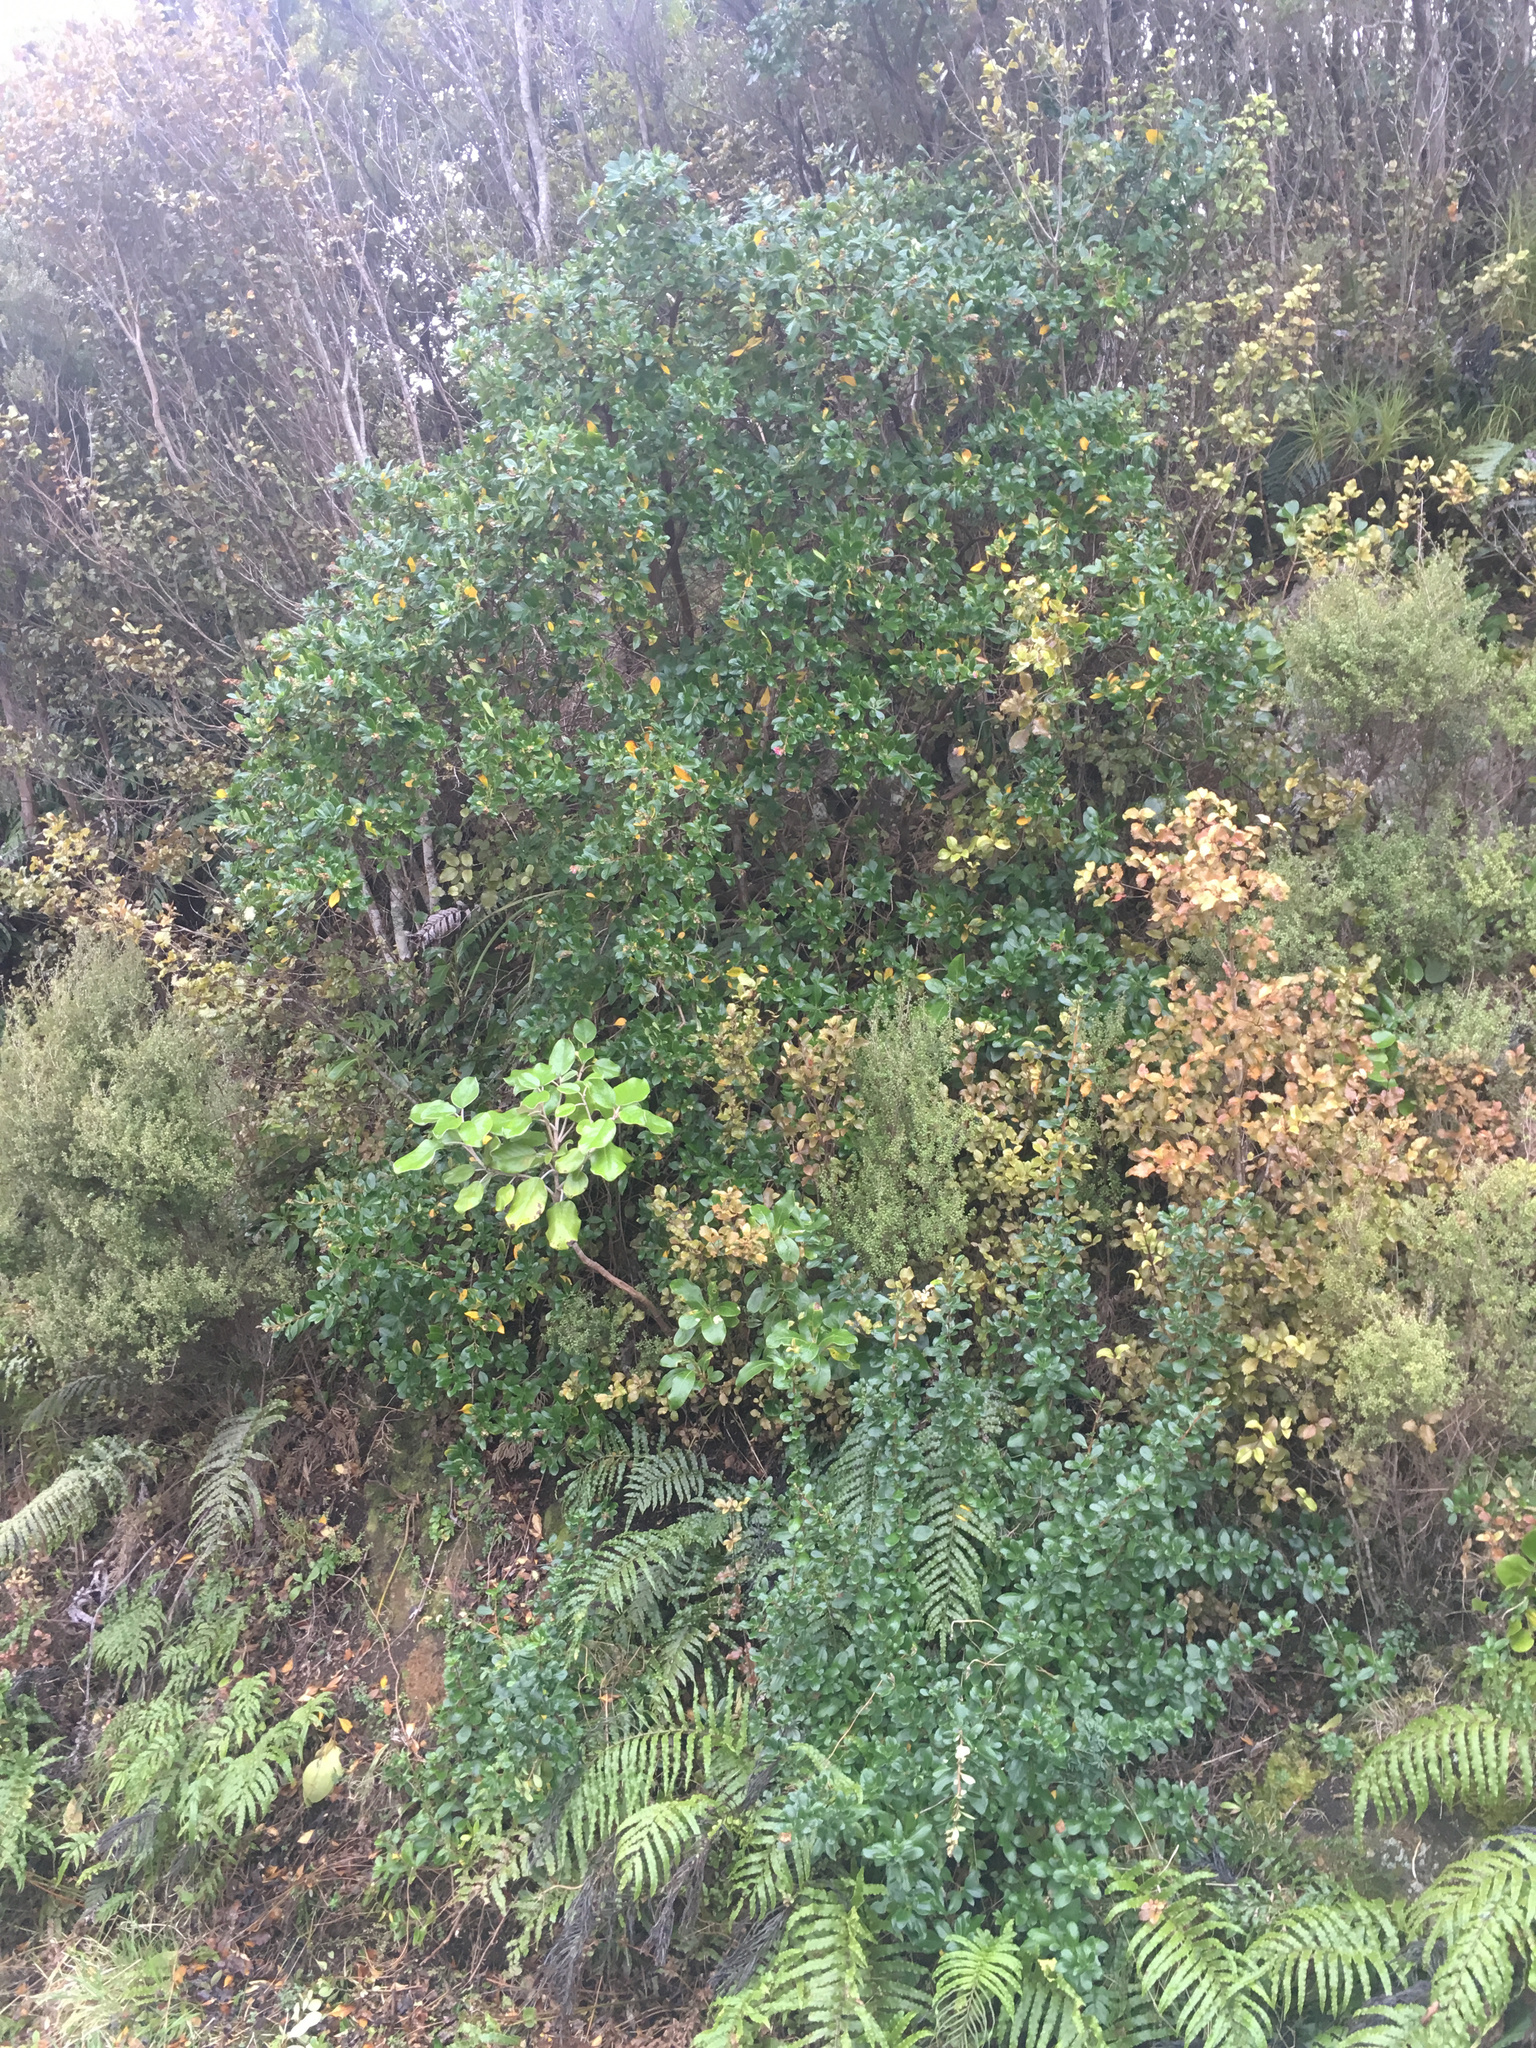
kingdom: Plantae
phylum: Tracheophyta
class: Magnoliopsida
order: Escalloniales
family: Escalloniaceae
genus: Escallonia
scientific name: Escallonia rubra
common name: Redclaws
